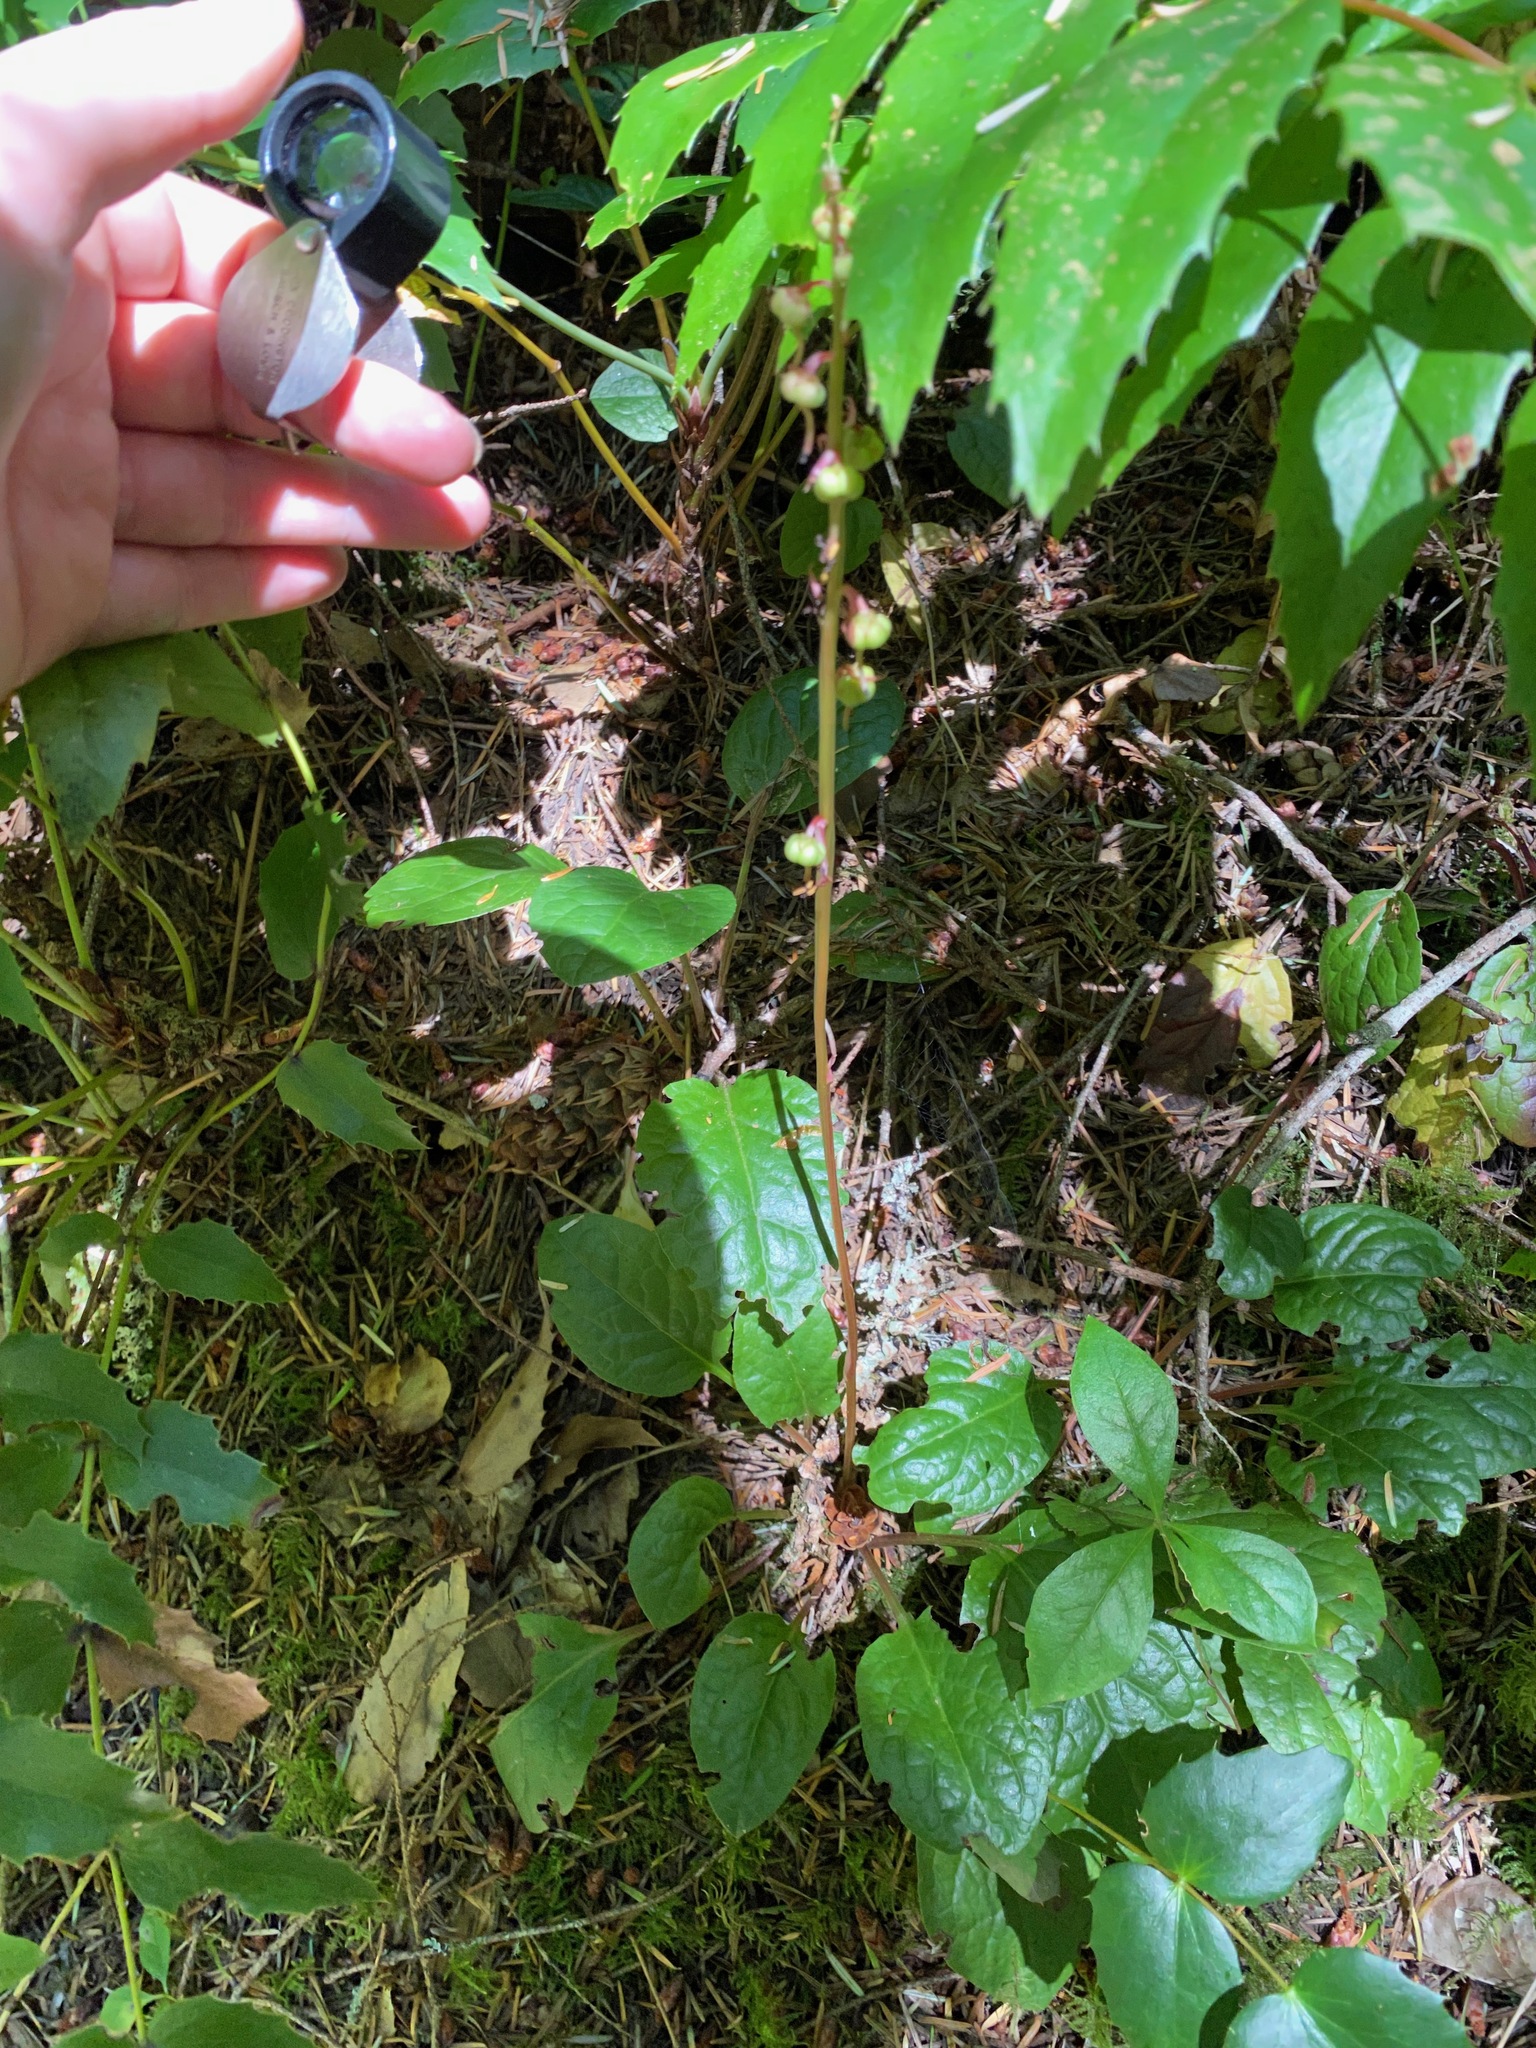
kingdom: Plantae
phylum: Tracheophyta
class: Magnoliopsida
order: Ericales
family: Ericaceae
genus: Pyrola
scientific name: Pyrola asarifolia
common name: Bog wintergreen
